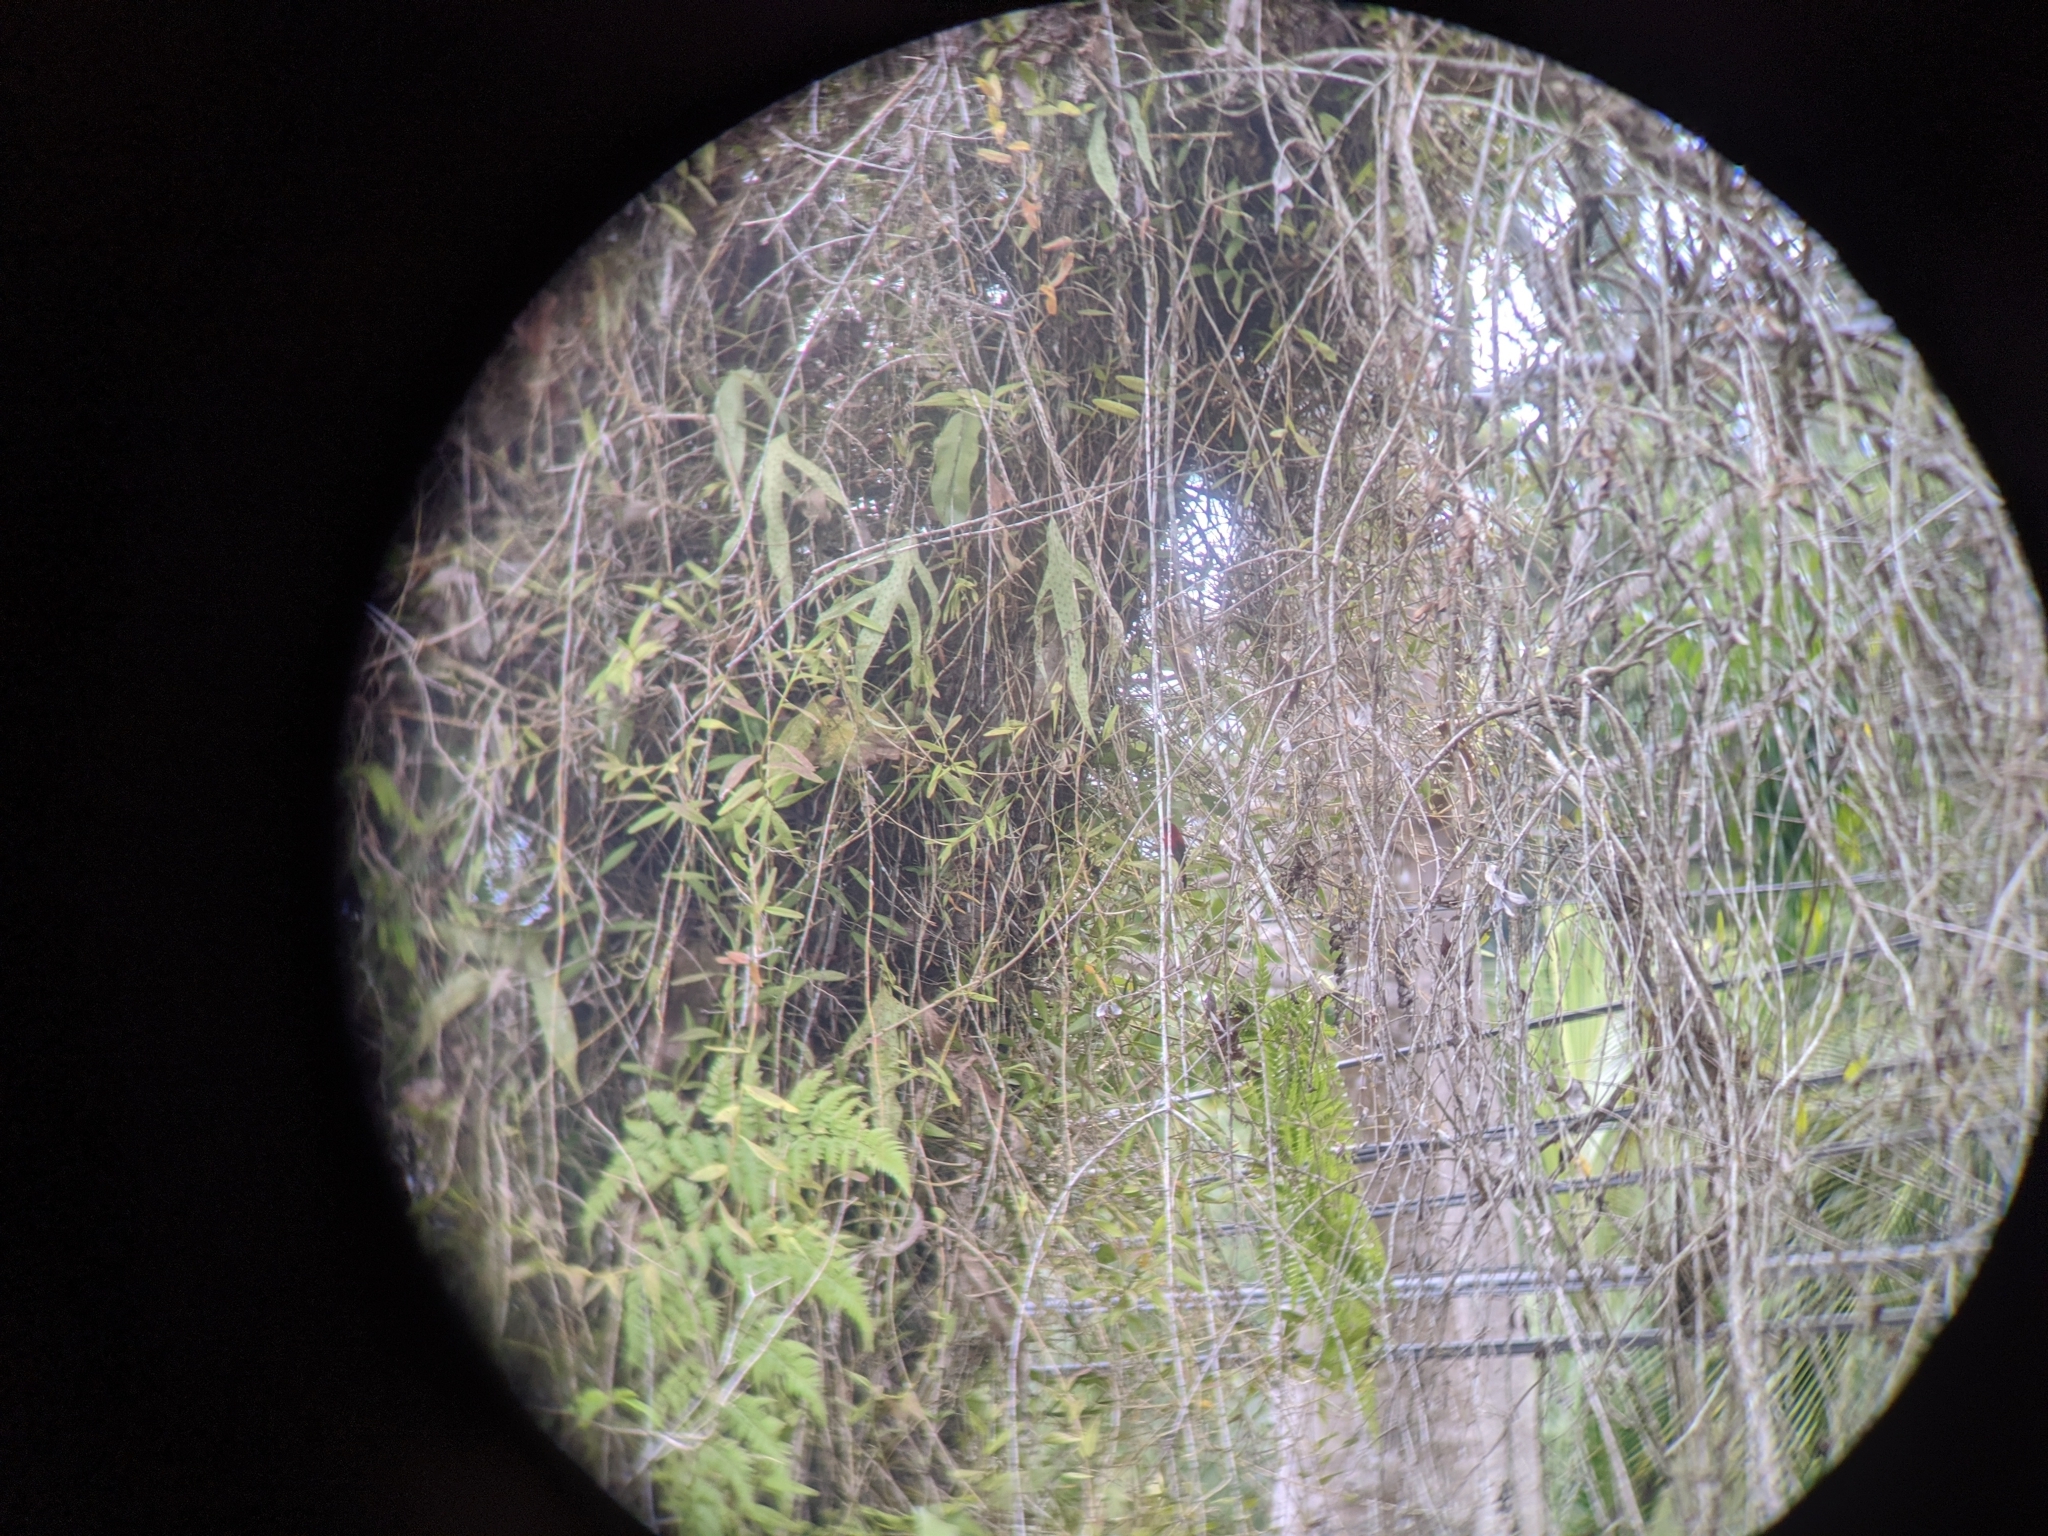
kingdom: Animalia
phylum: Chordata
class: Aves
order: Passeriformes
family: Nectariniidae
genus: Aethopyga
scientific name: Aethopyga siparaja
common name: Crimson sunbird
